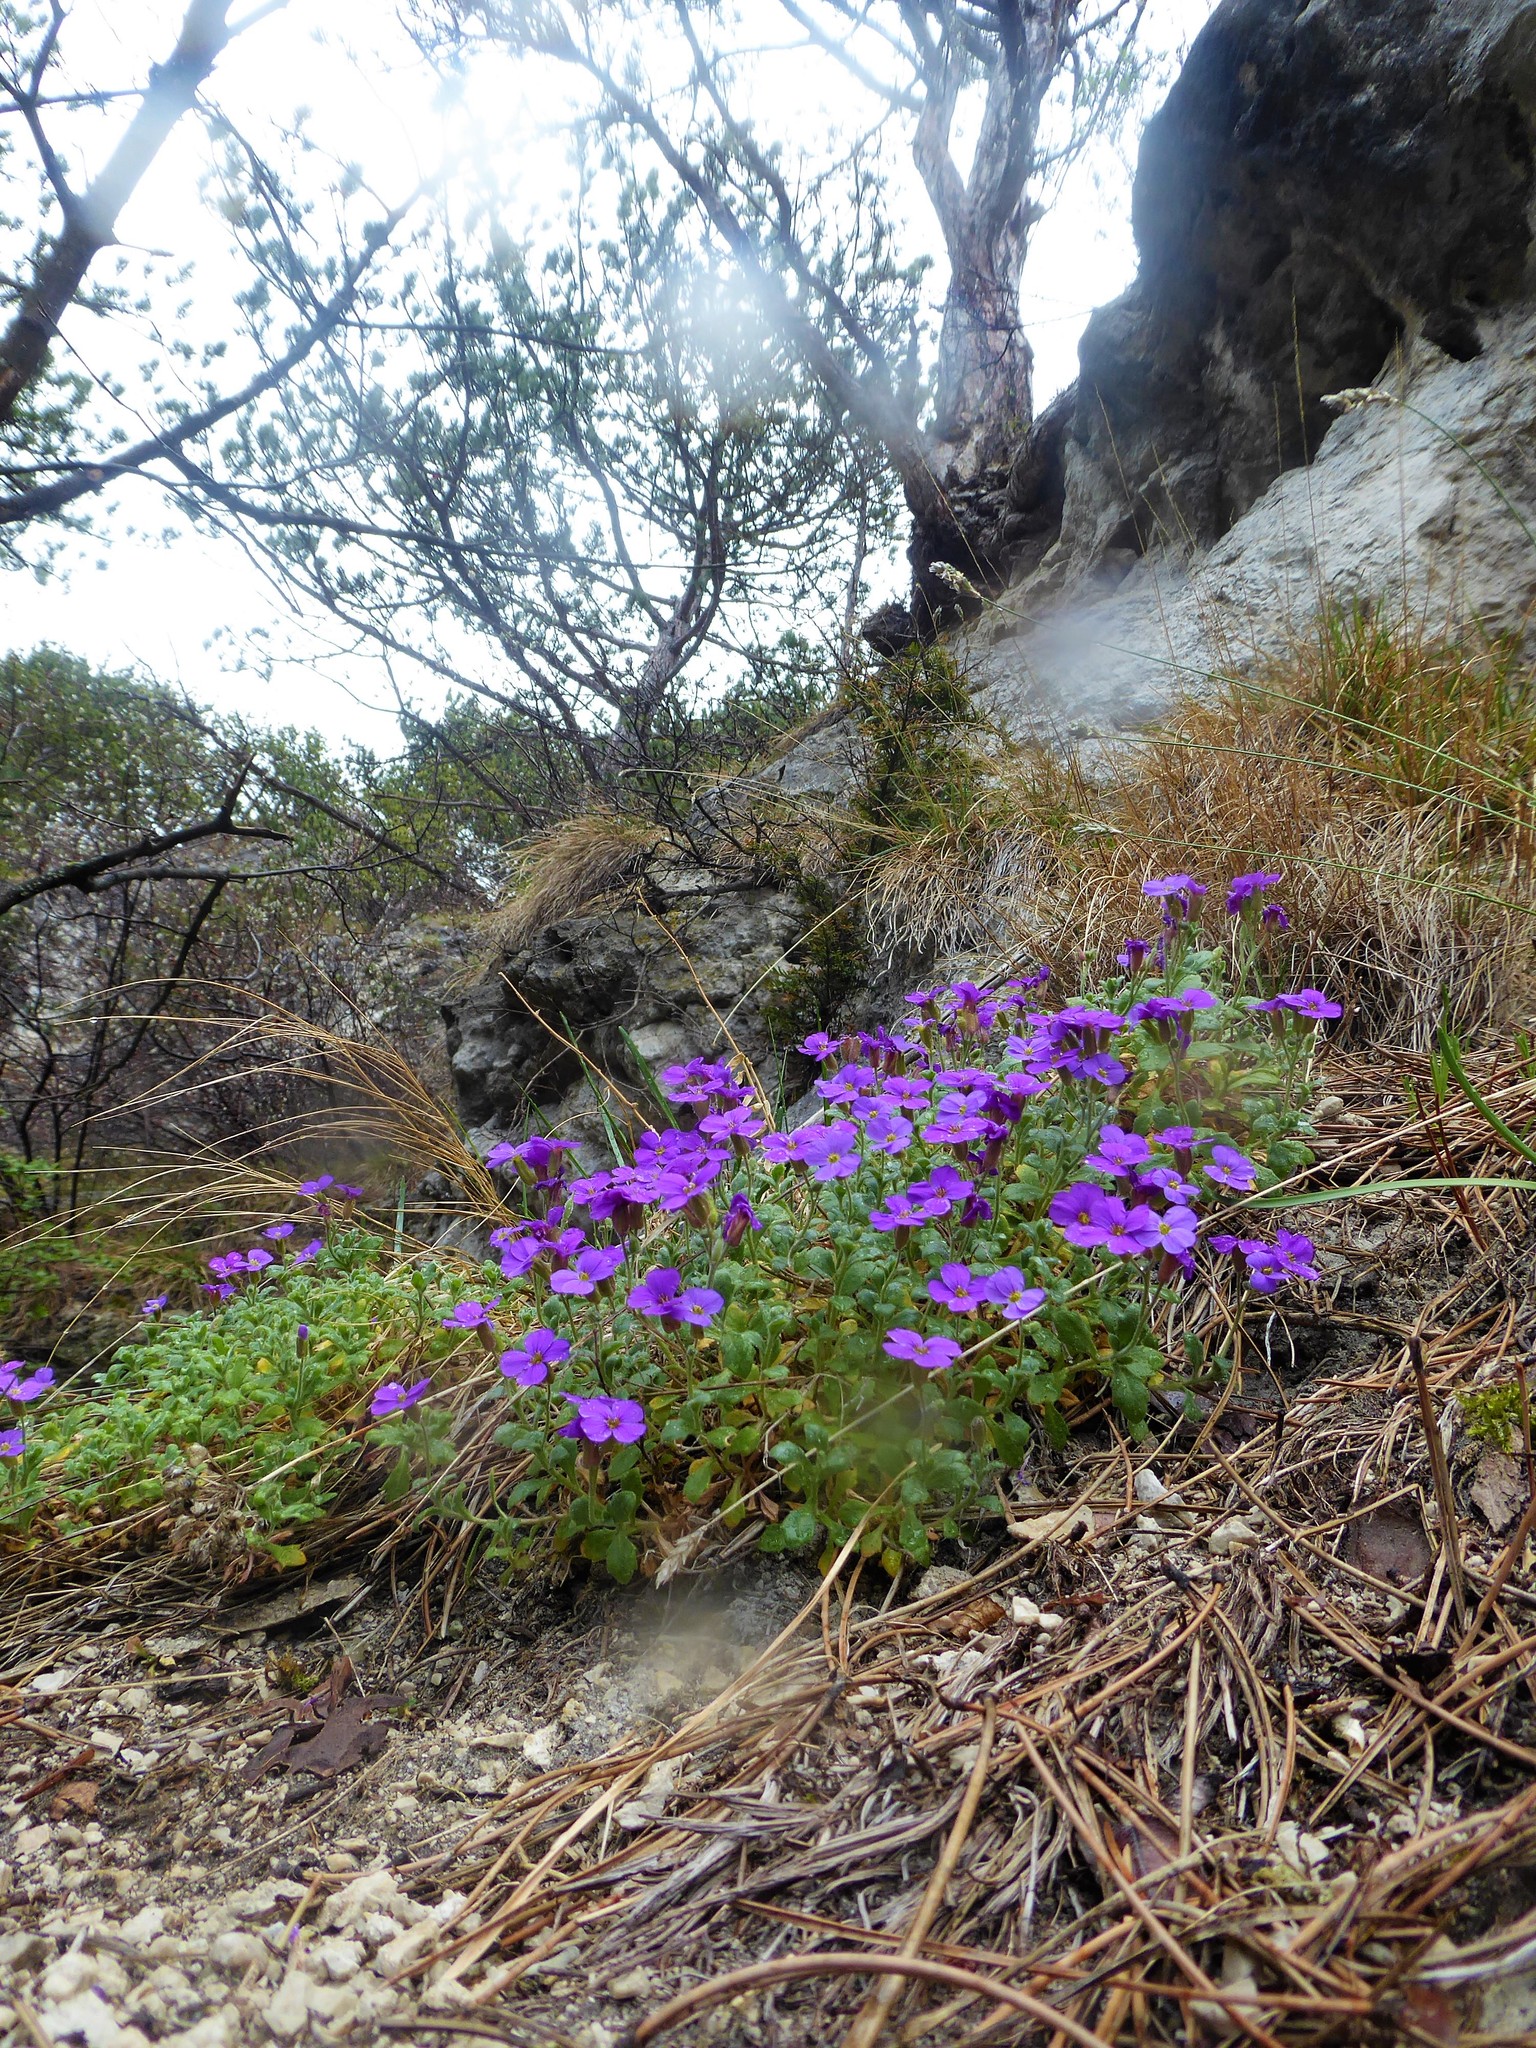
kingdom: Plantae
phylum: Tracheophyta
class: Magnoliopsida
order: Brassicales
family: Brassicaceae
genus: Aubrieta
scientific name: Aubrieta deltoidea
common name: Aubretia
